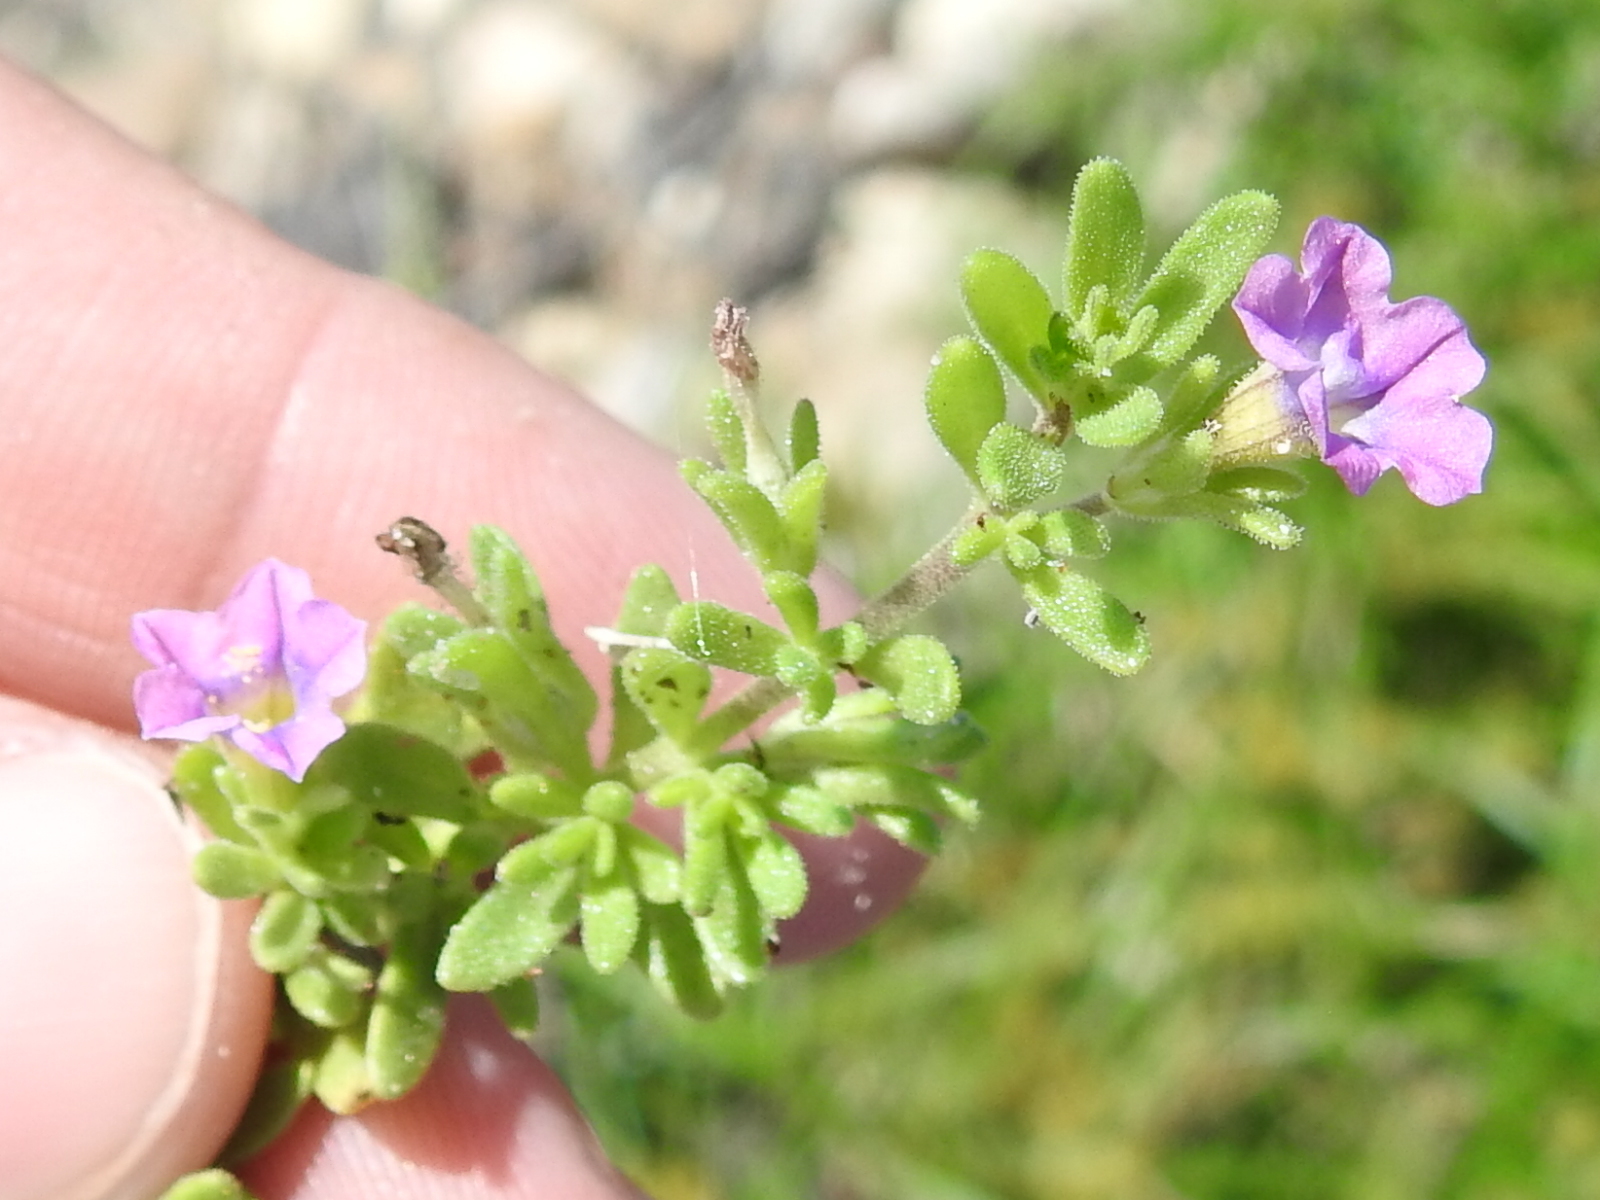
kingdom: Plantae
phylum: Tracheophyta
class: Magnoliopsida
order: Solanales
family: Solanaceae
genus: Calibrachoa
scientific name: Calibrachoa parviflora
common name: Seaside petunia
